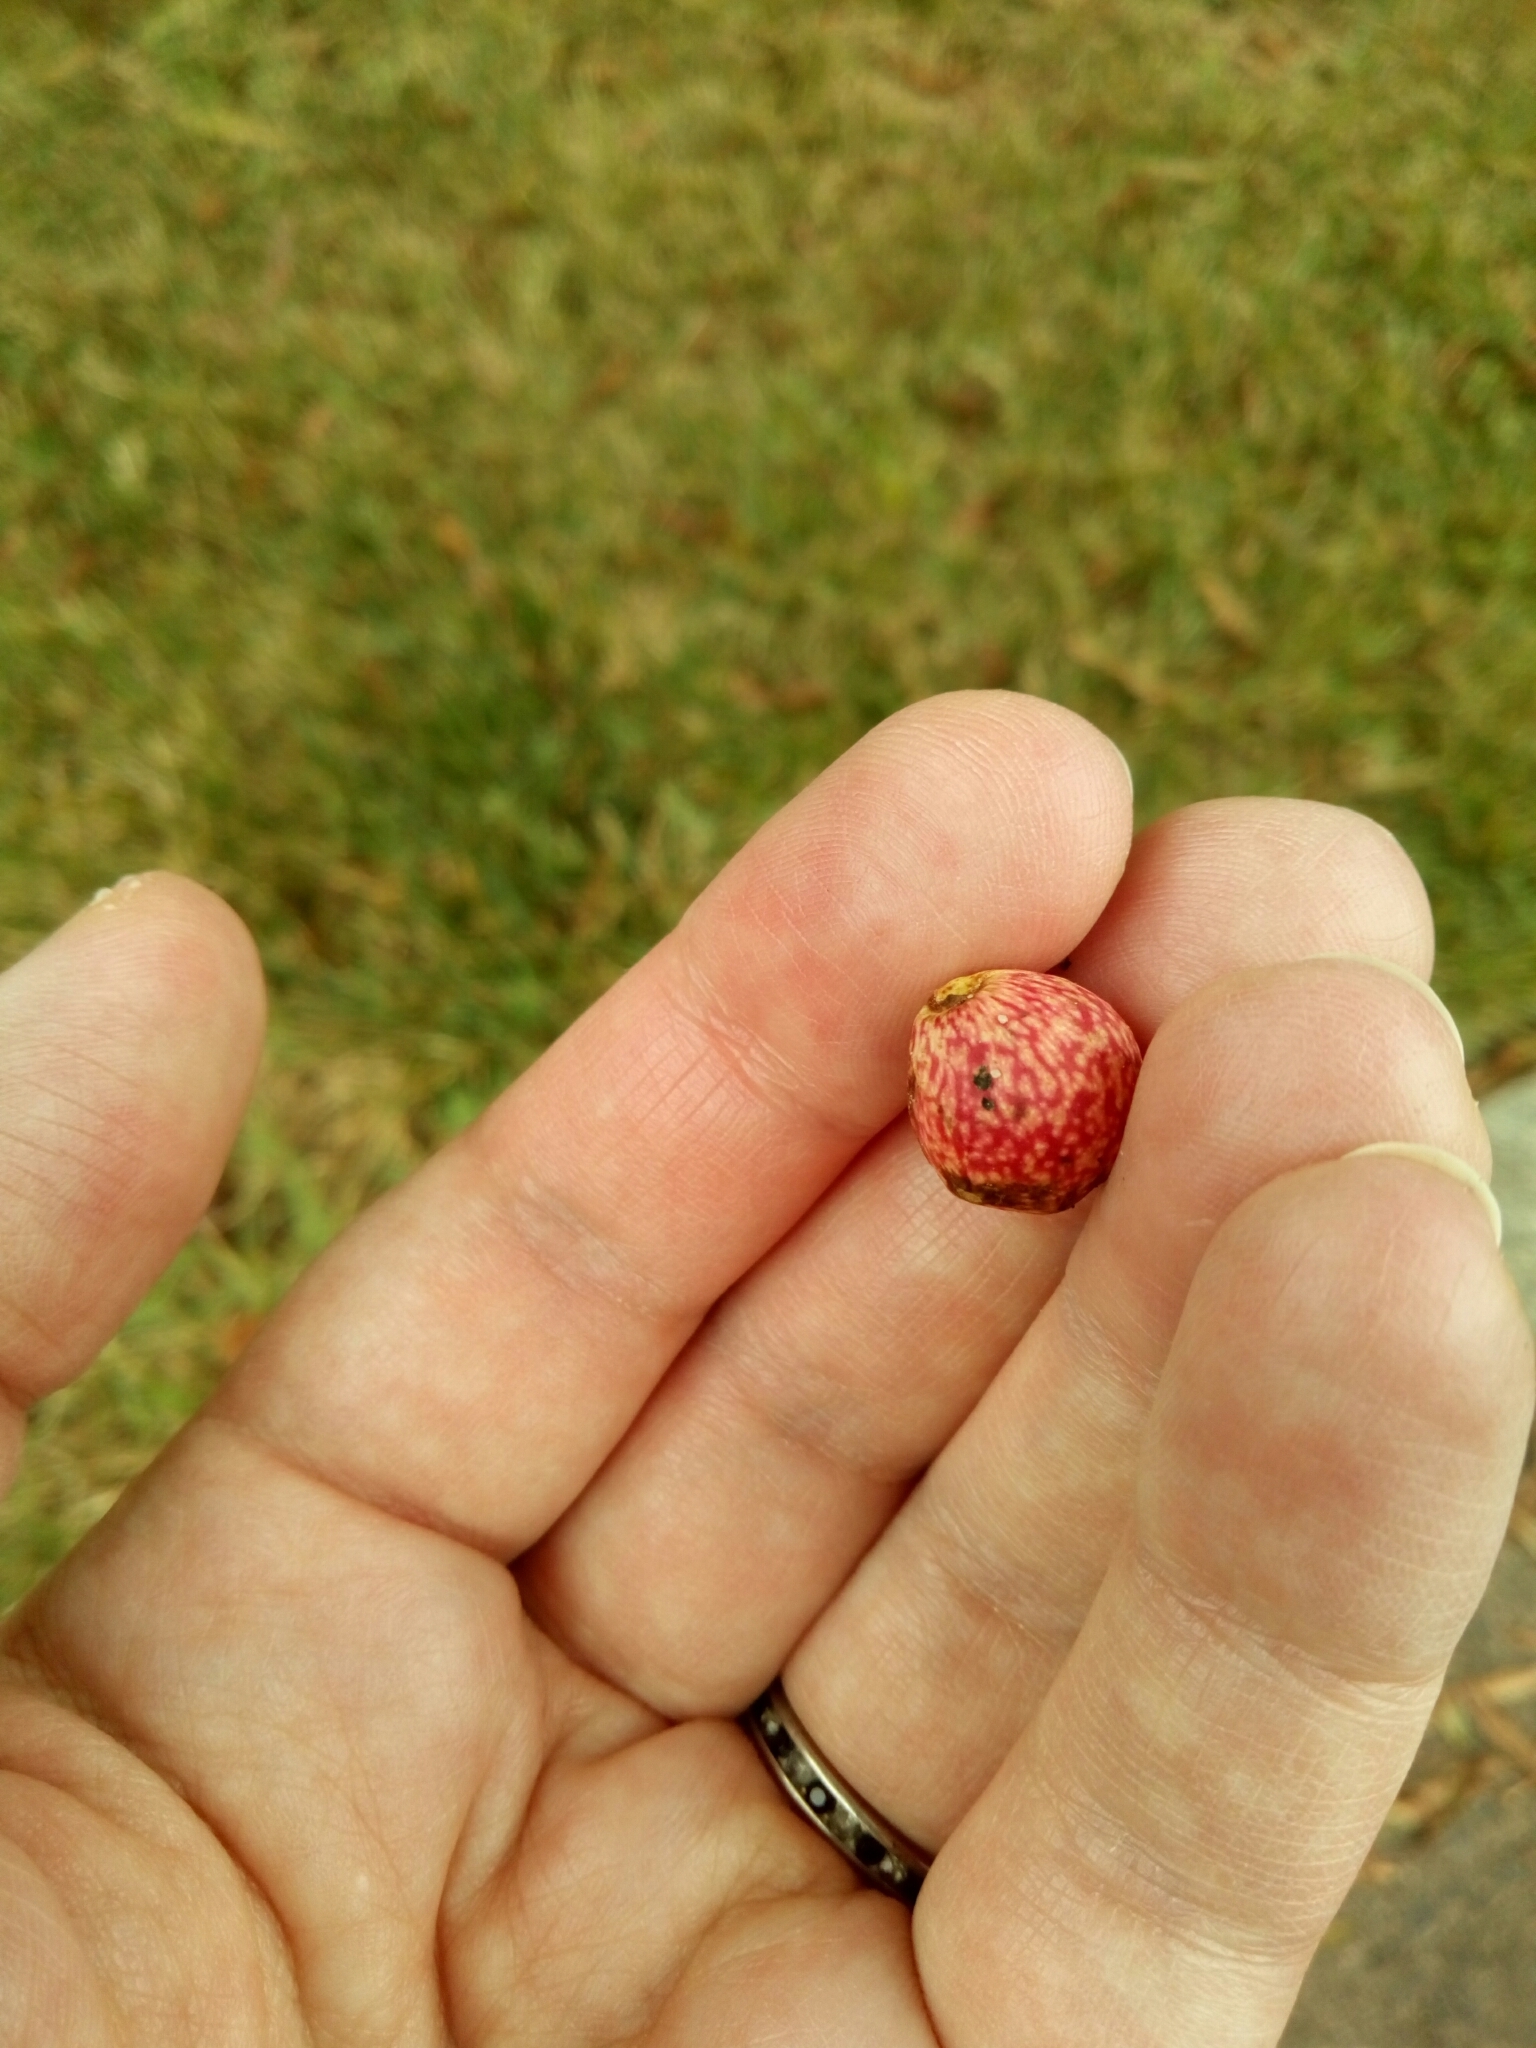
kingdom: Animalia
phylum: Arthropoda
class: Insecta
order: Hymenoptera
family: Cynipidae
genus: Amphibolips
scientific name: Amphibolips
